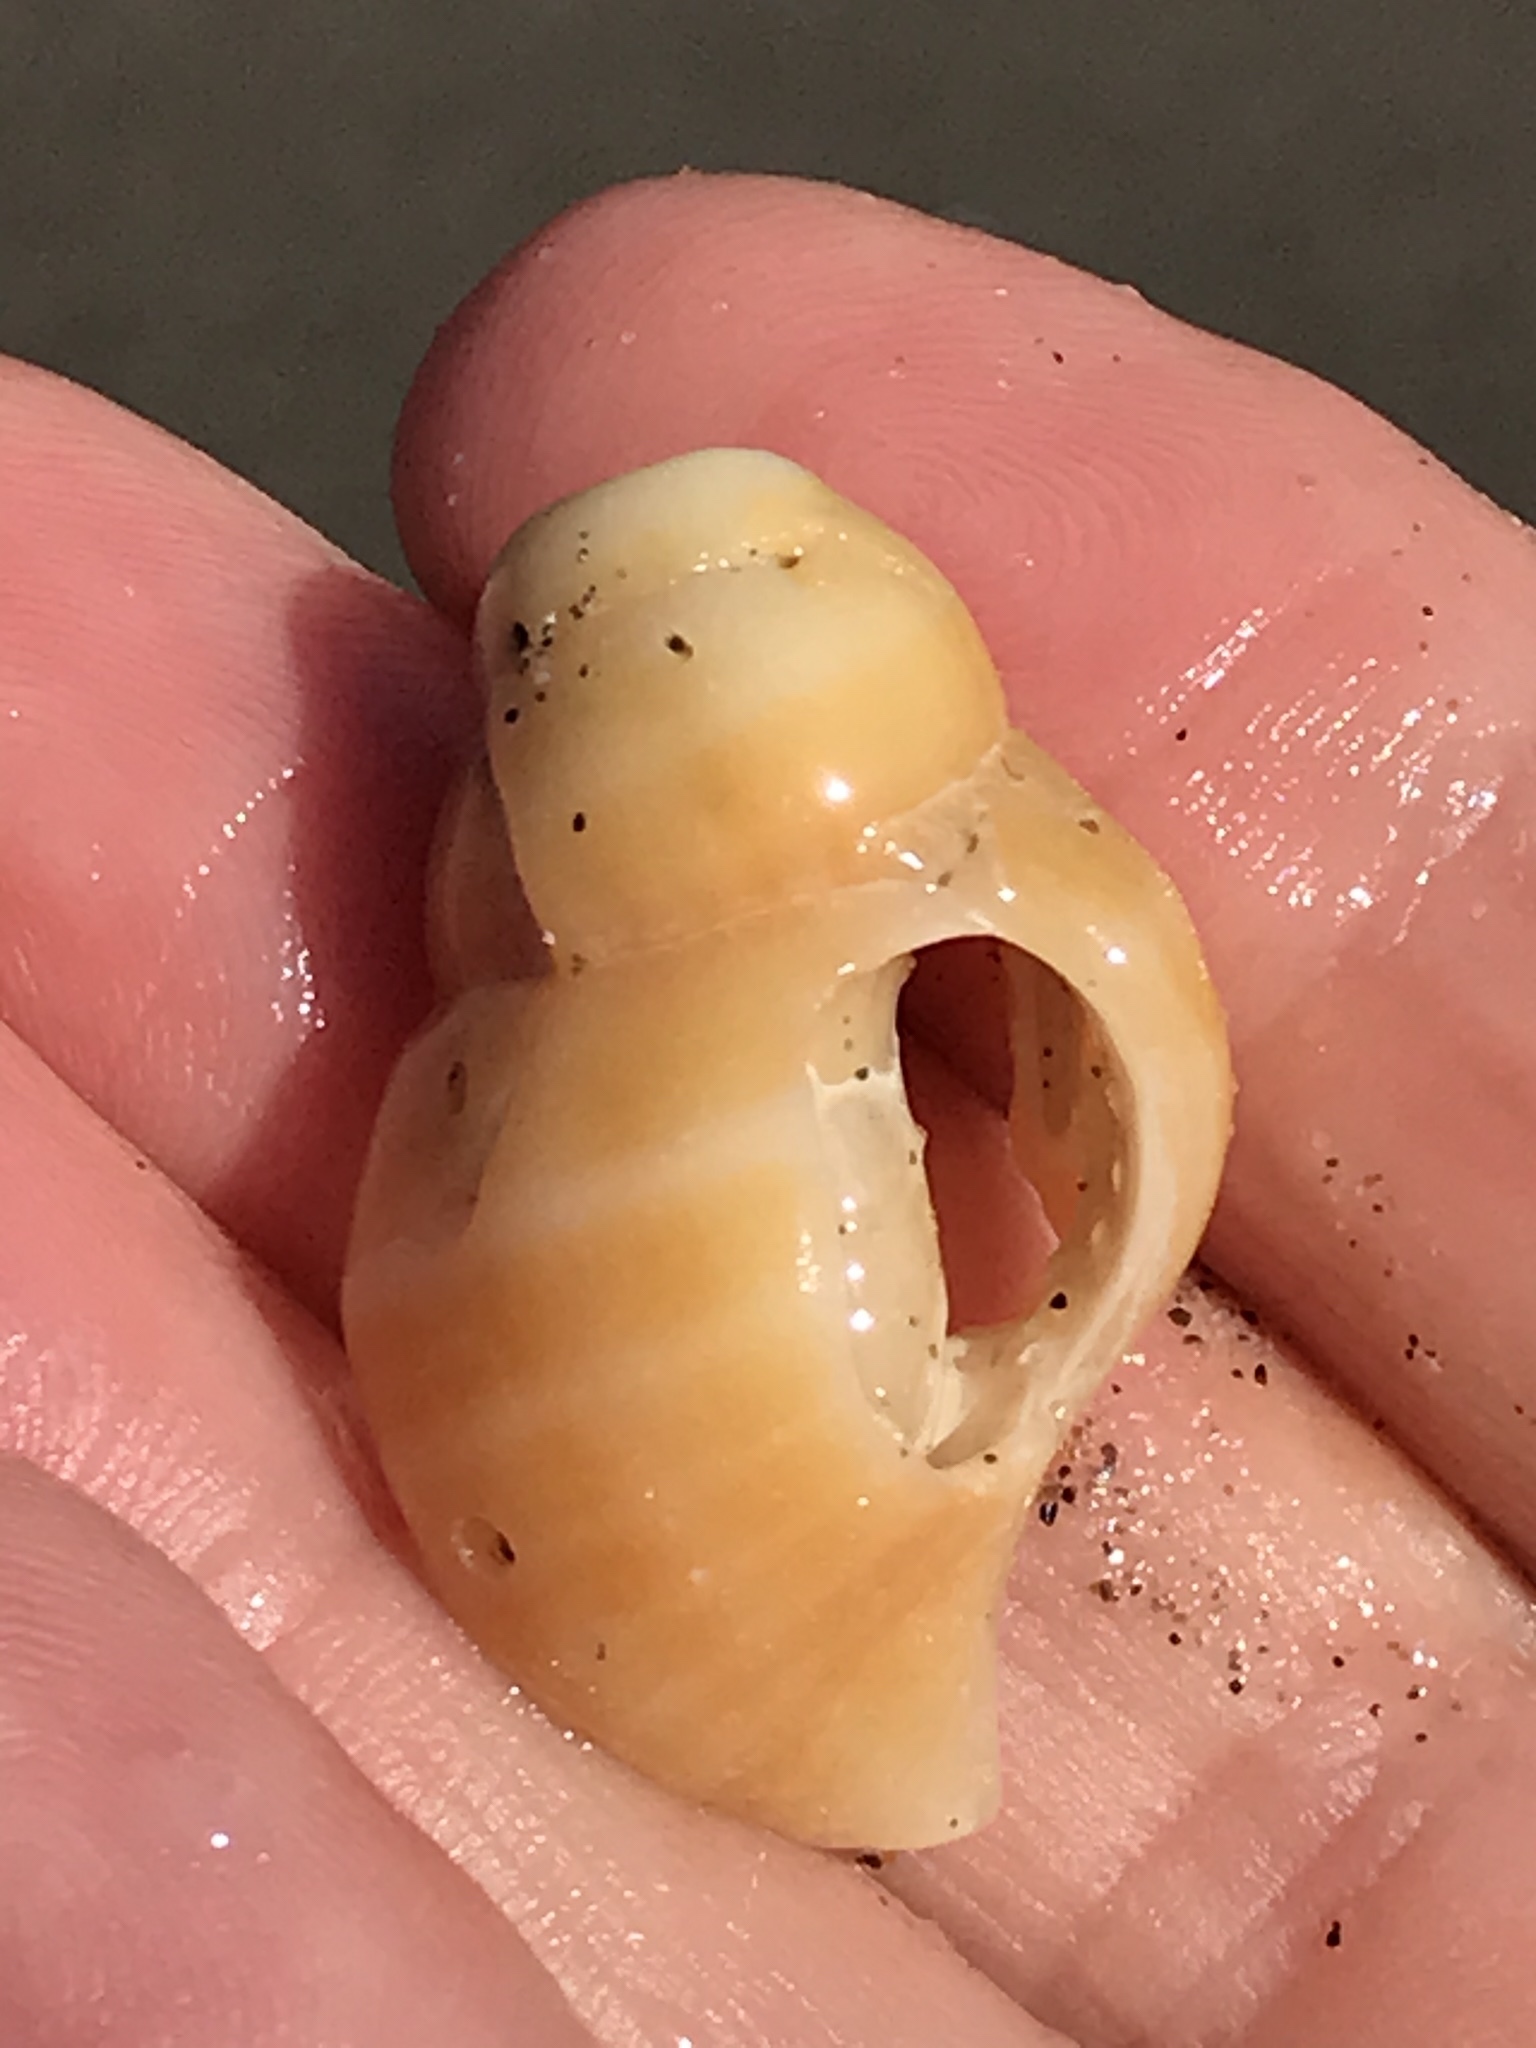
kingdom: Animalia
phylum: Mollusca
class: Gastropoda
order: Neogastropoda
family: Muricidae
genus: Nucella
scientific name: Nucella lamellosa
